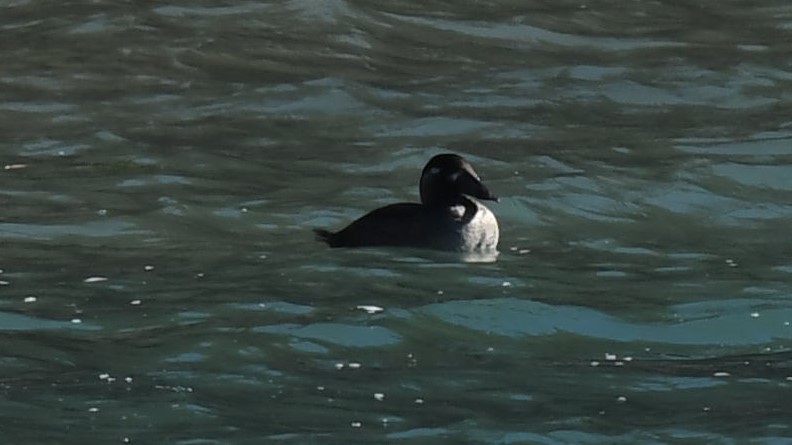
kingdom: Animalia
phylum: Chordata
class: Aves
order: Anseriformes
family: Anatidae
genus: Melanitta
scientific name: Melanitta perspicillata
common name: Surf scoter
